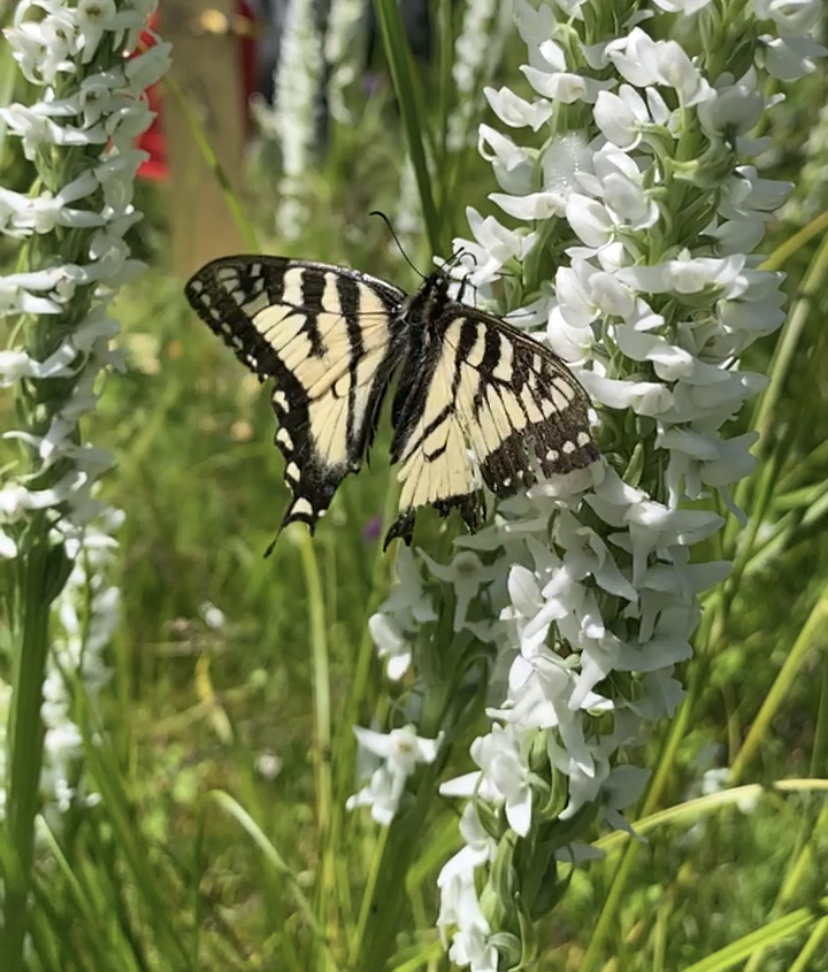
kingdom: Animalia
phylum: Arthropoda
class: Insecta
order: Lepidoptera
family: Papilionidae
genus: Papilio
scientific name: Papilio canadensis
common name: Canadian tiger swallowtail
